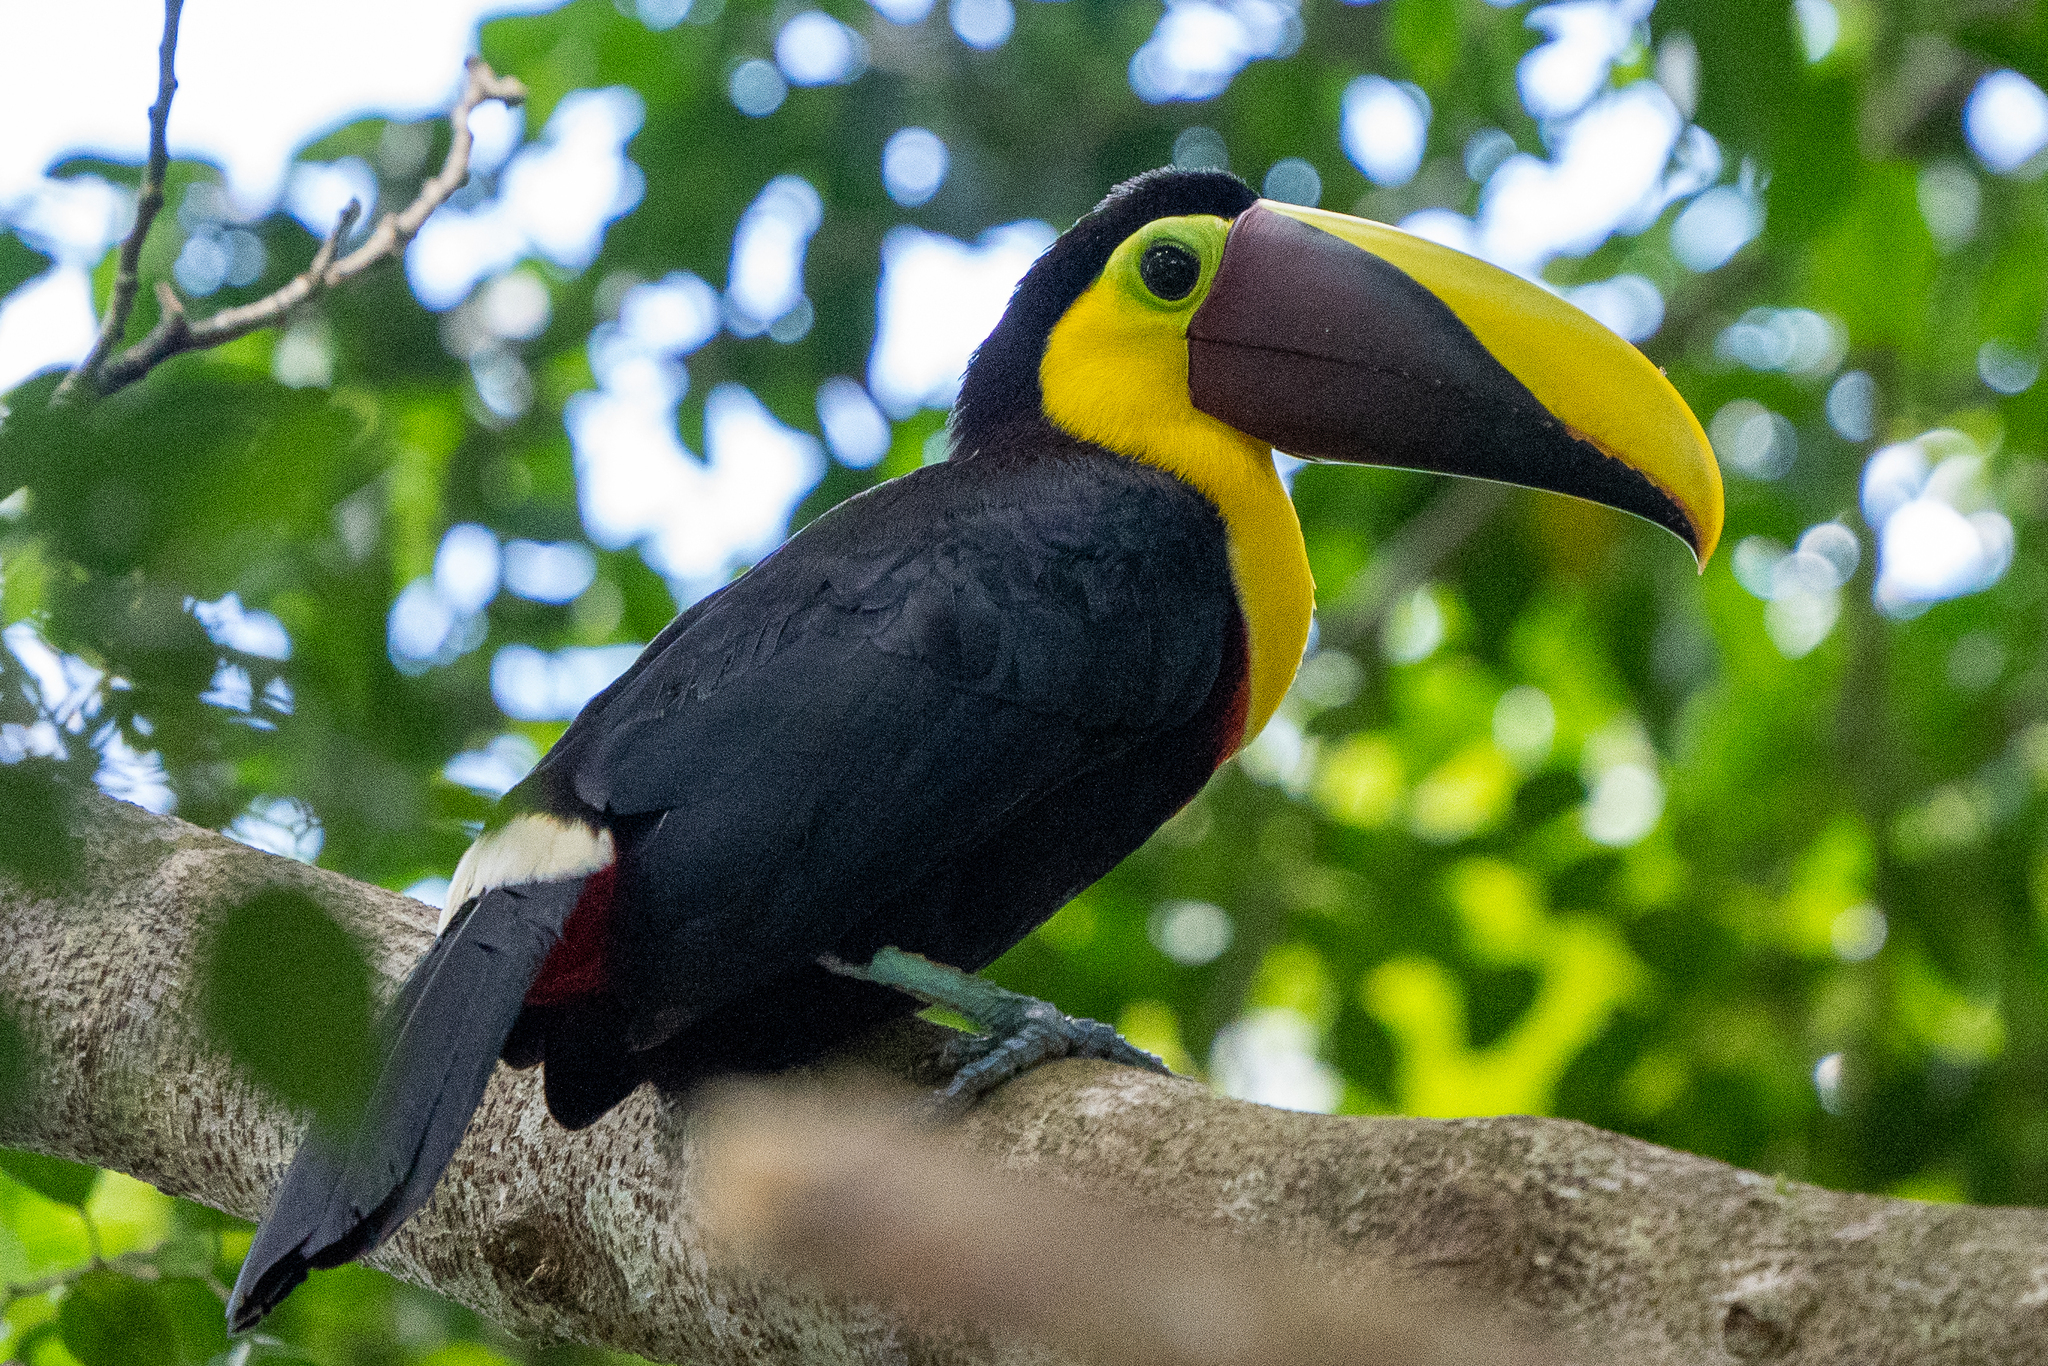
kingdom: Animalia
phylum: Chordata
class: Aves
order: Piciformes
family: Ramphastidae
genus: Ramphastos
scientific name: Ramphastos ambiguus
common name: Yellow-throated toucan
